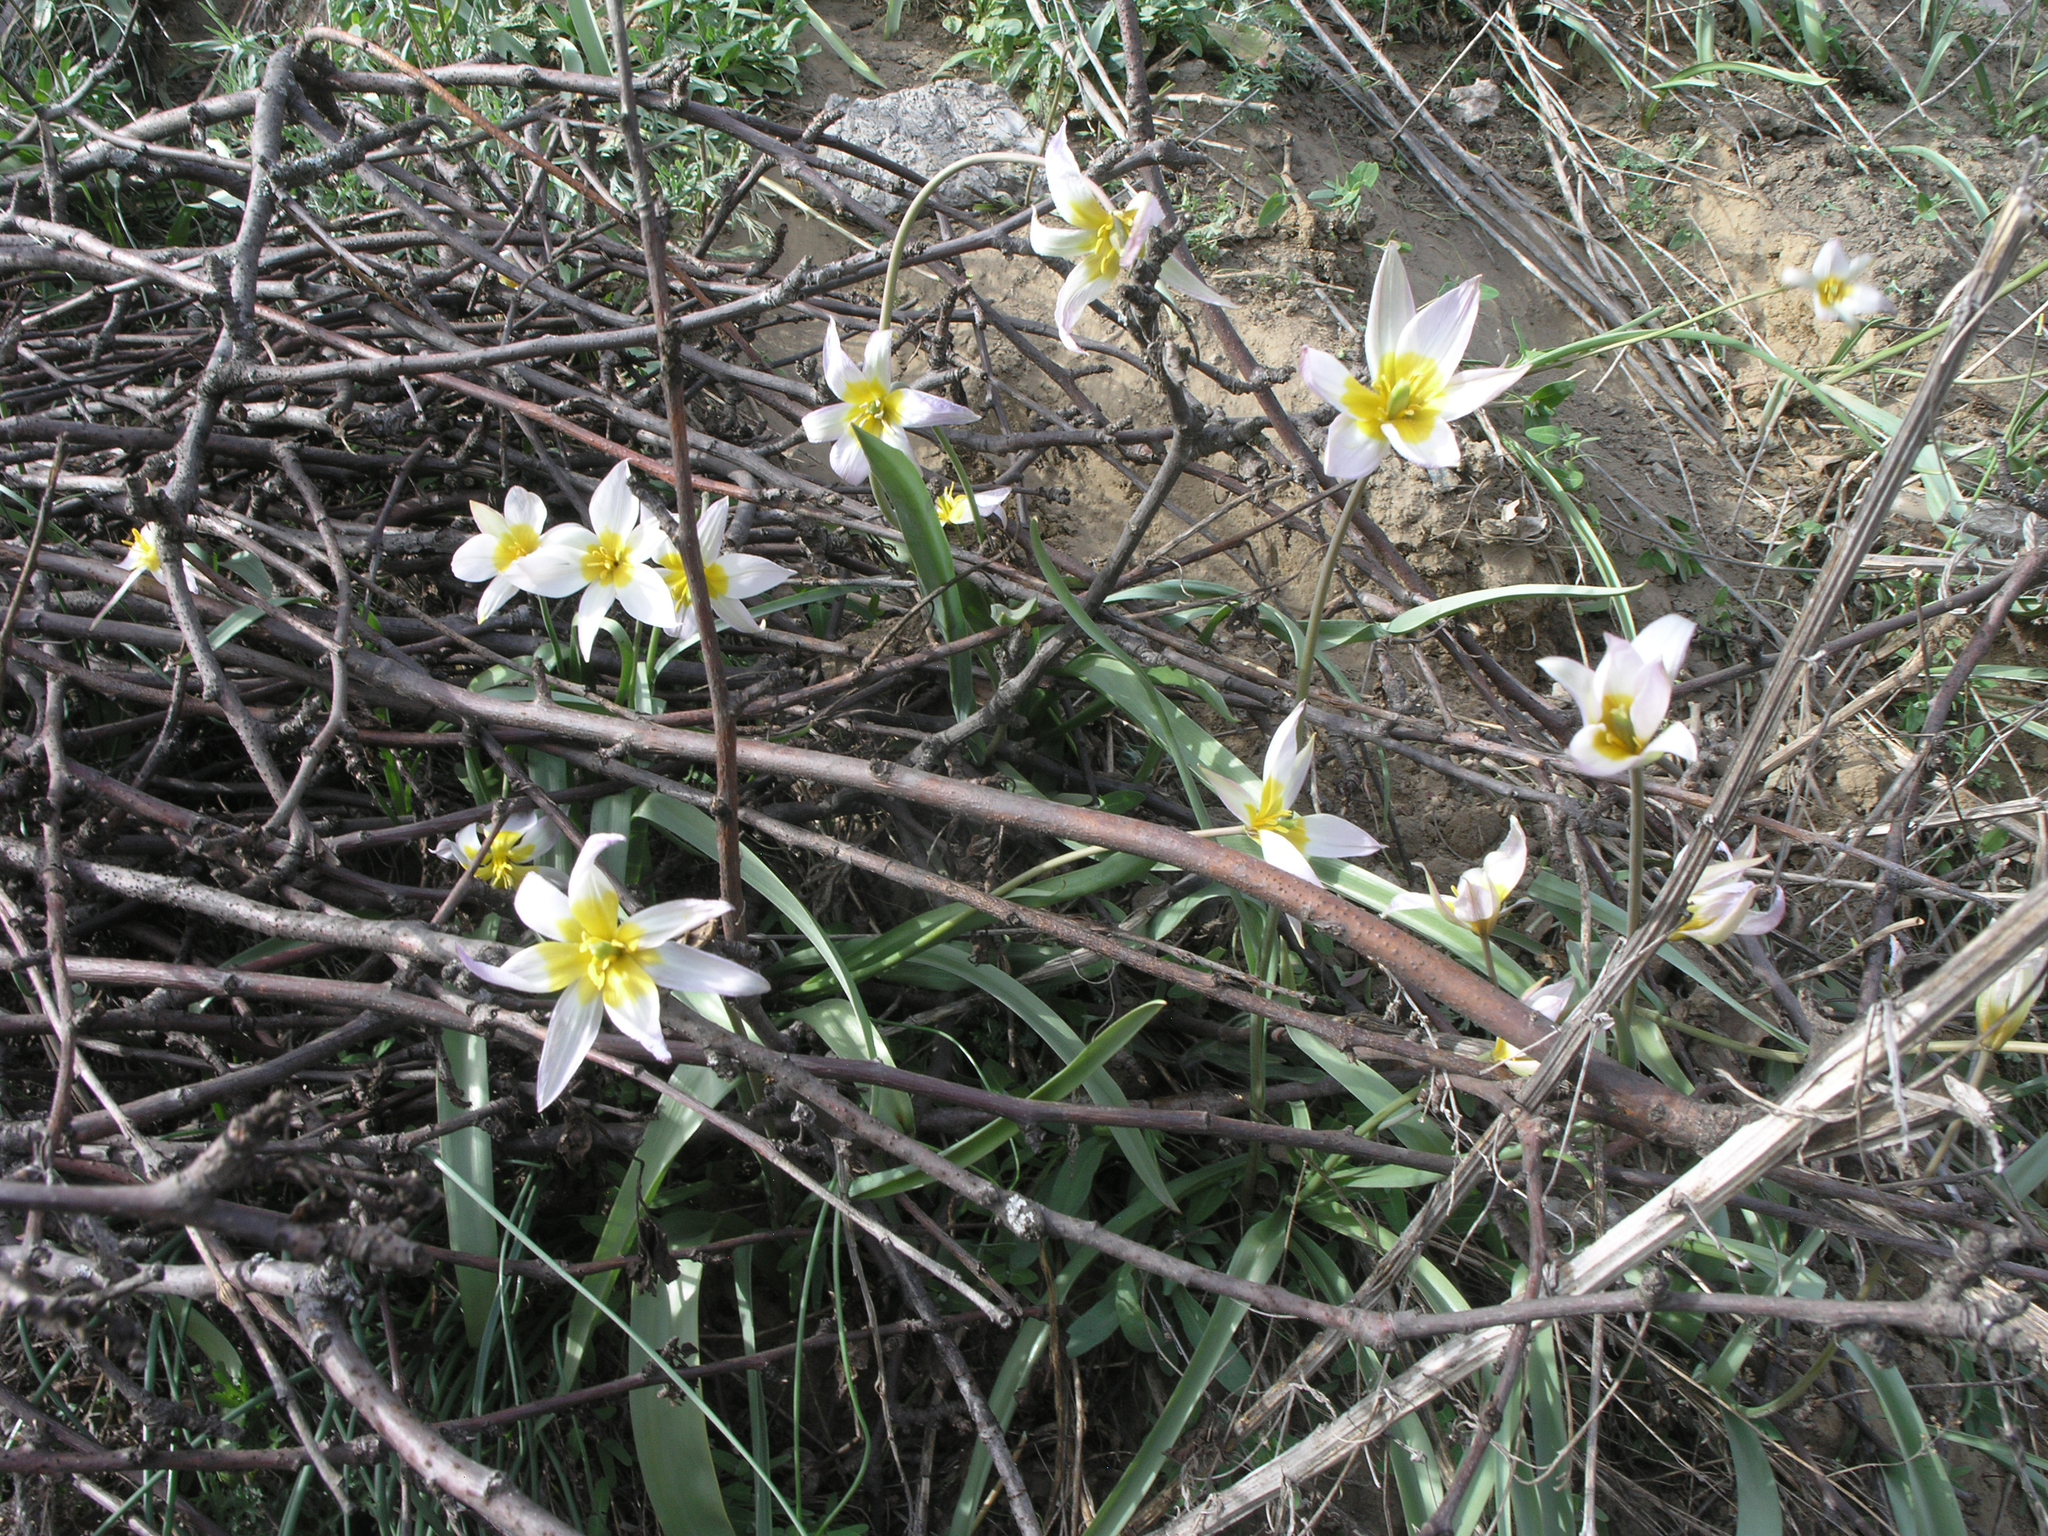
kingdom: Plantae
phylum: Tracheophyta
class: Liliopsida
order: Liliales
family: Liliaceae
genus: Tulipa
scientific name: Tulipa patens
